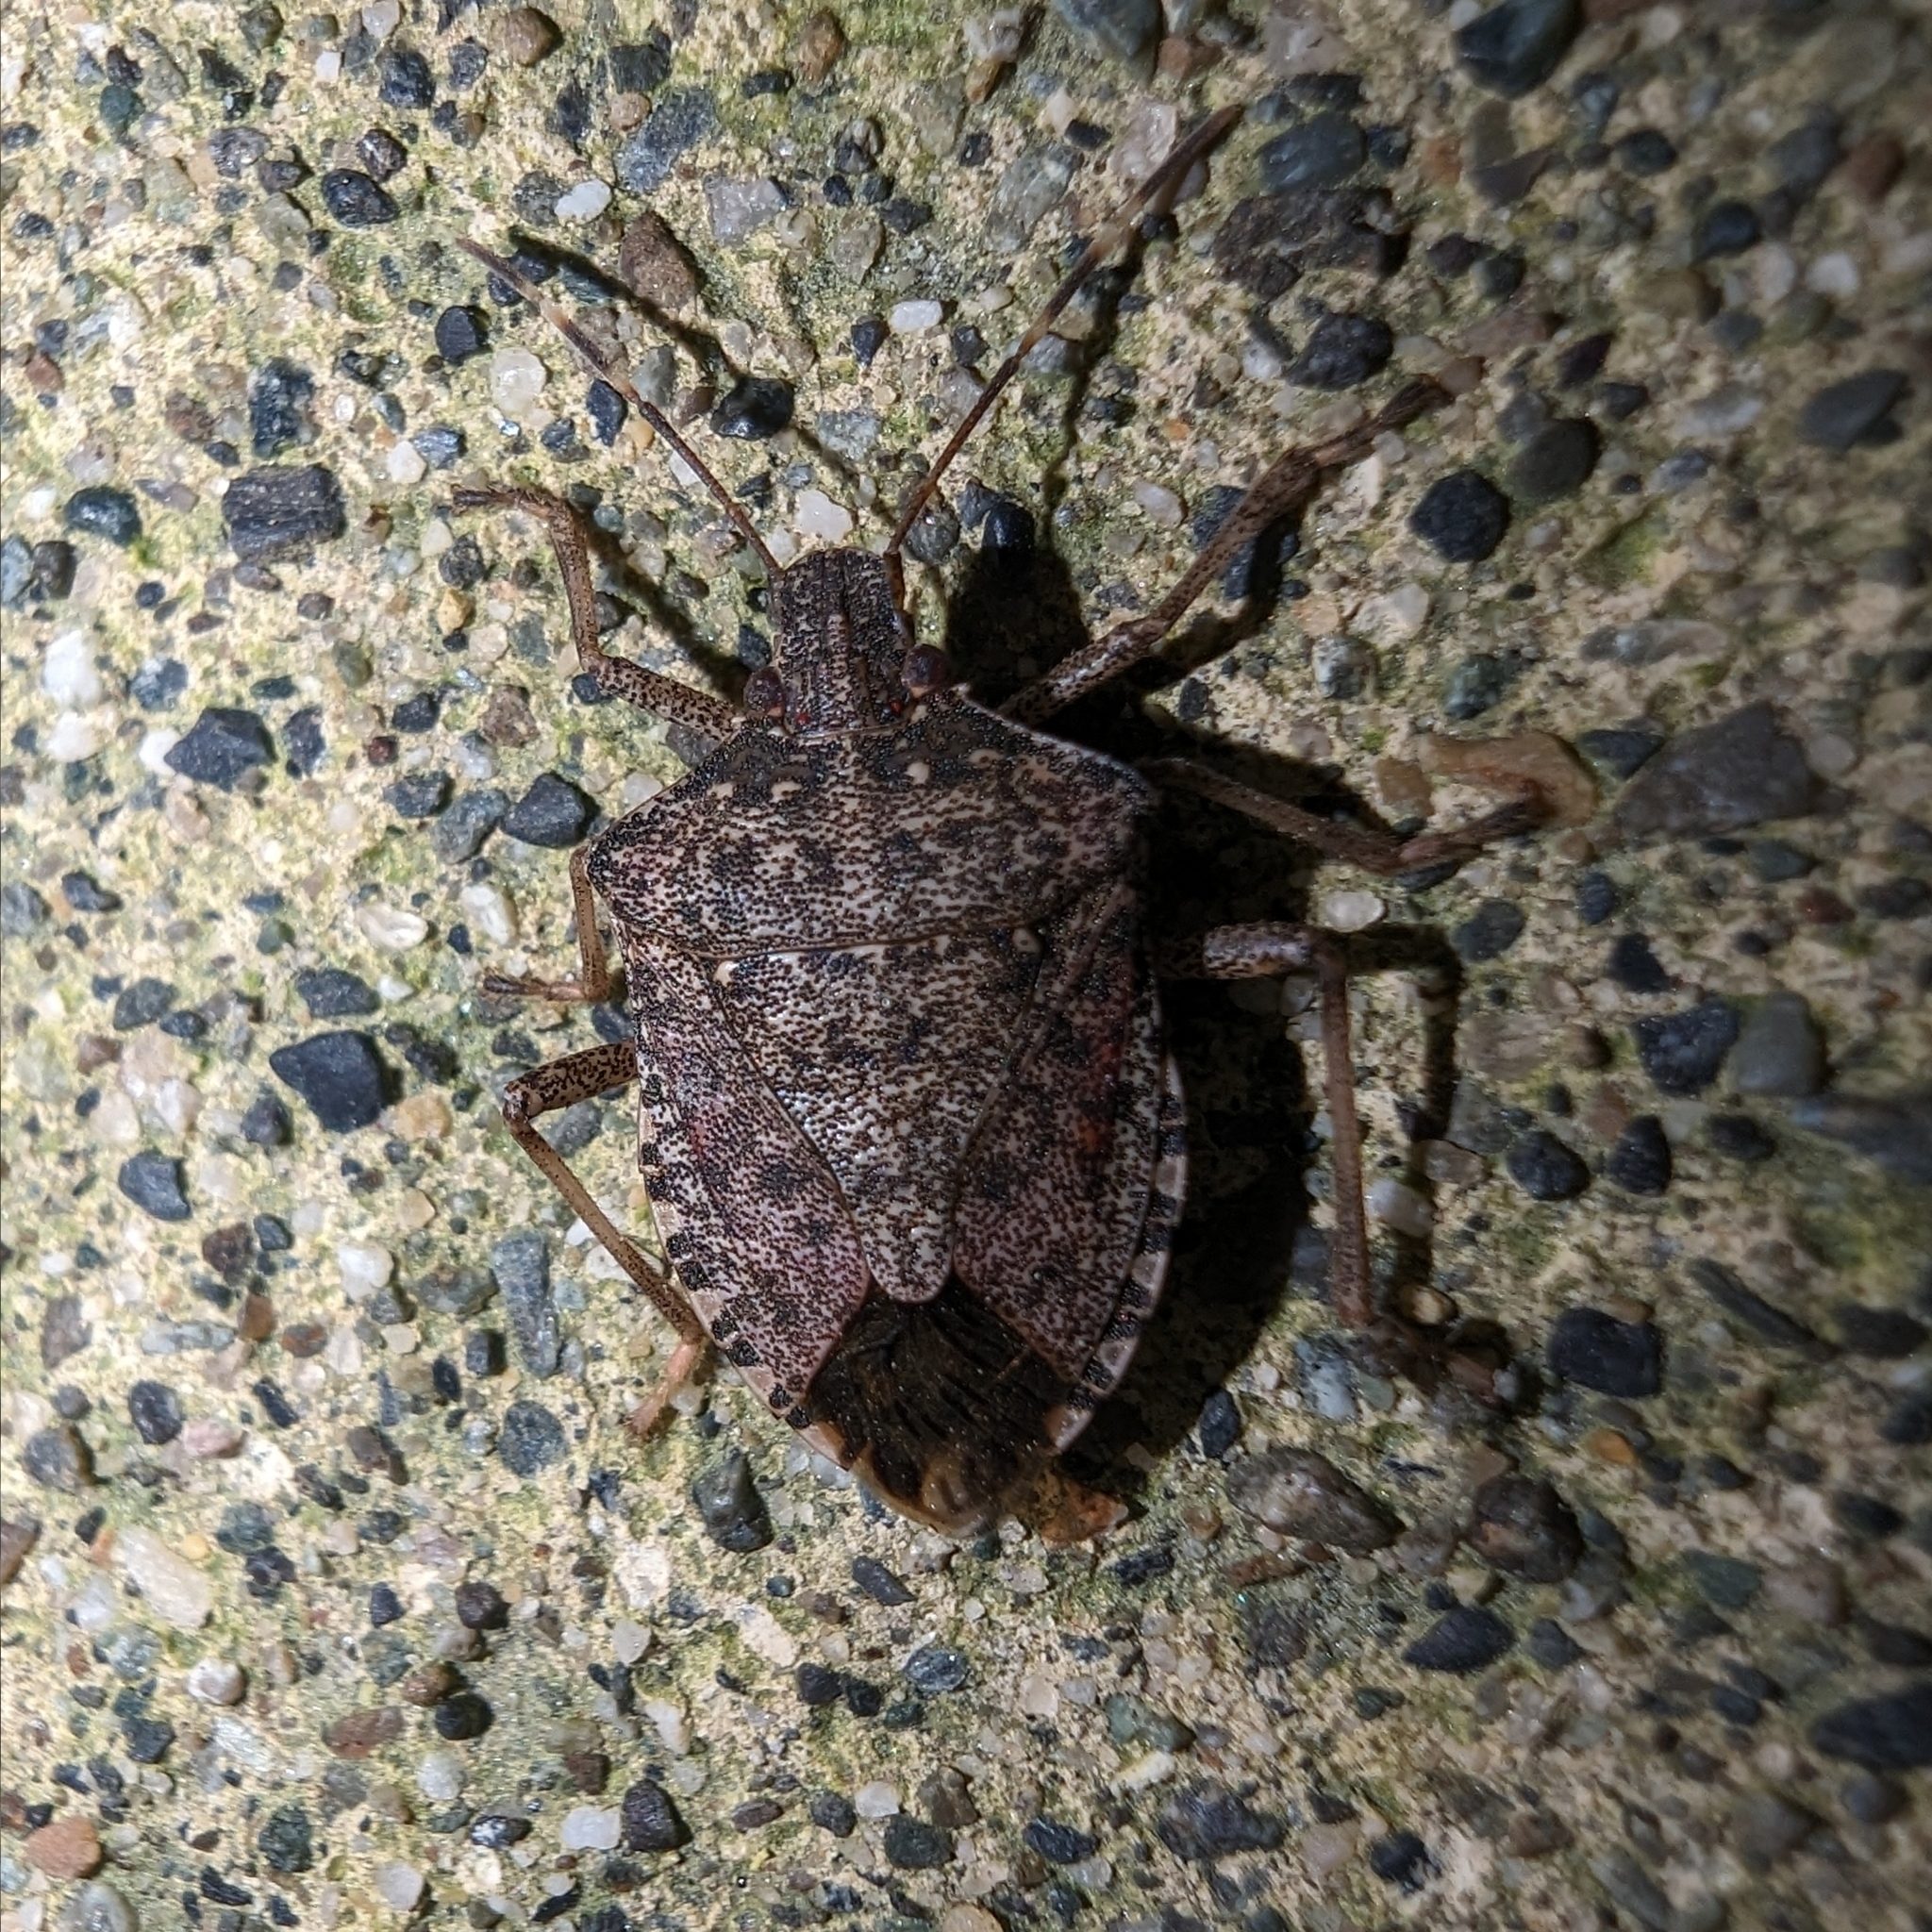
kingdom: Animalia
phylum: Arthropoda
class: Insecta
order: Hemiptera
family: Pentatomidae
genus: Halyomorpha
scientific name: Halyomorpha halys
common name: Brown marmorated stink bug
